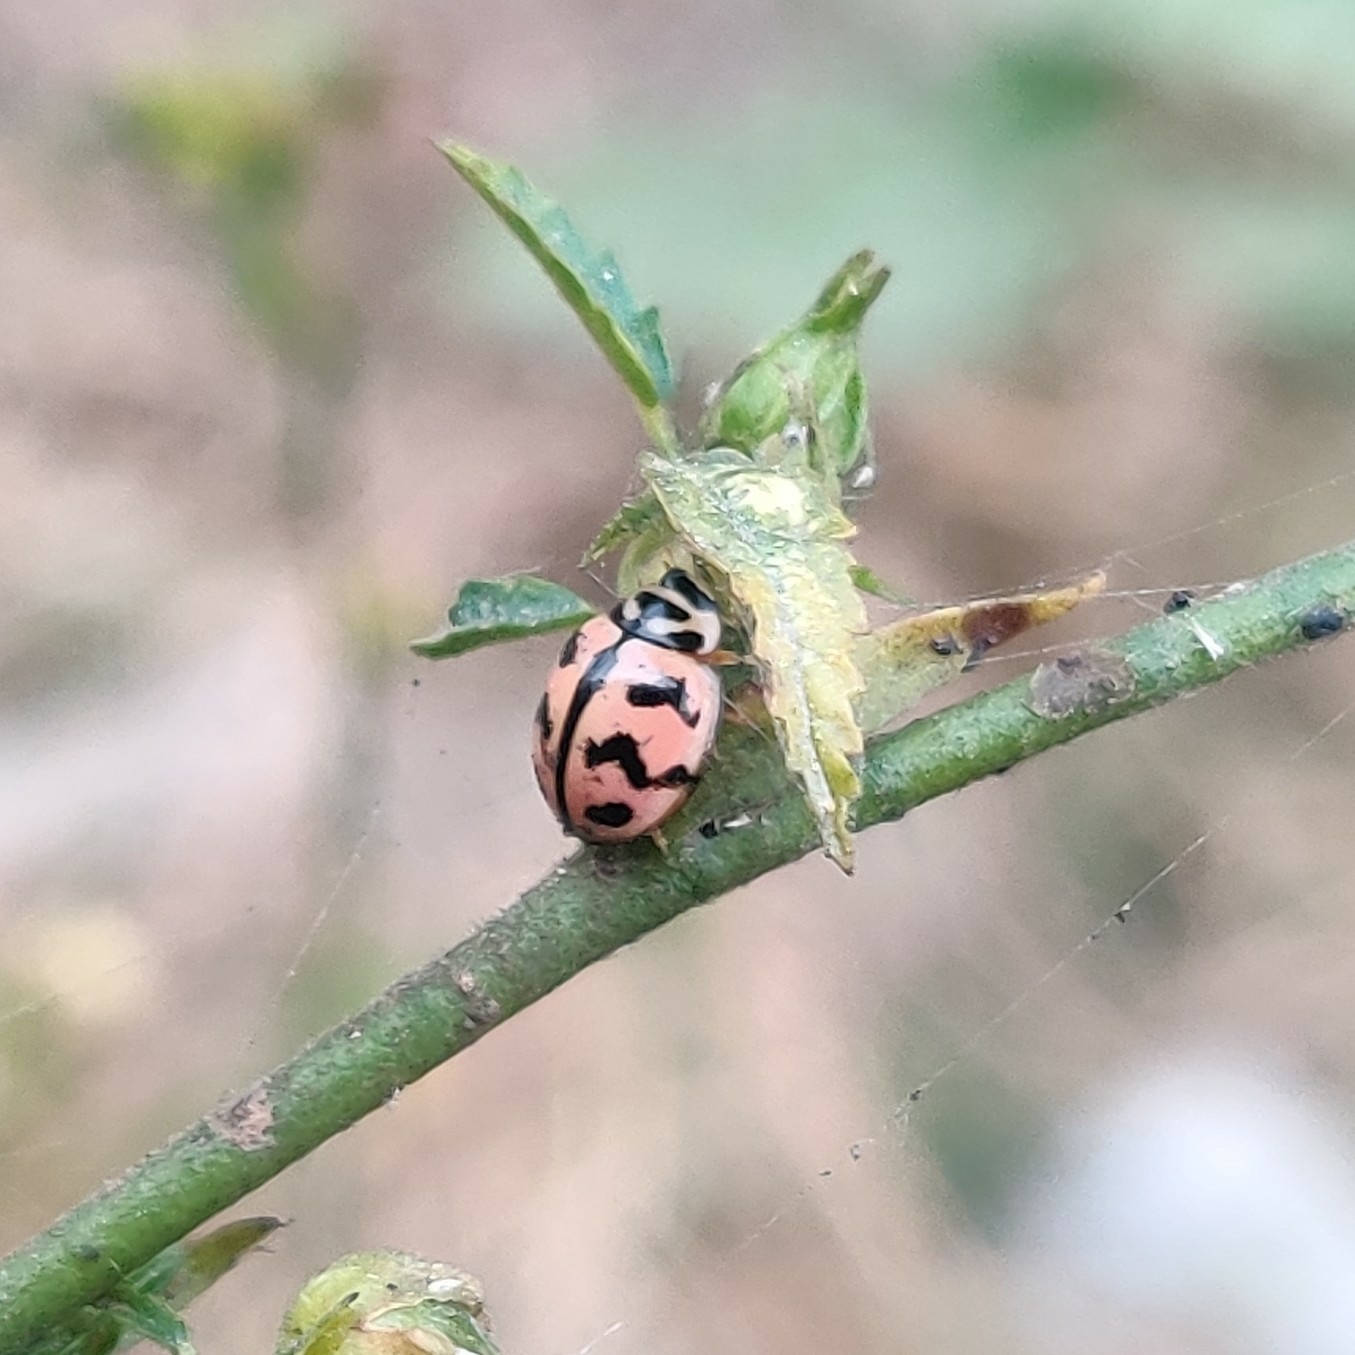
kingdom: Animalia
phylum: Arthropoda
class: Insecta
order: Coleoptera
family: Coccinellidae
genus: Cheilomenes
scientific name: Cheilomenes sexmaculata
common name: Ladybird beetle
